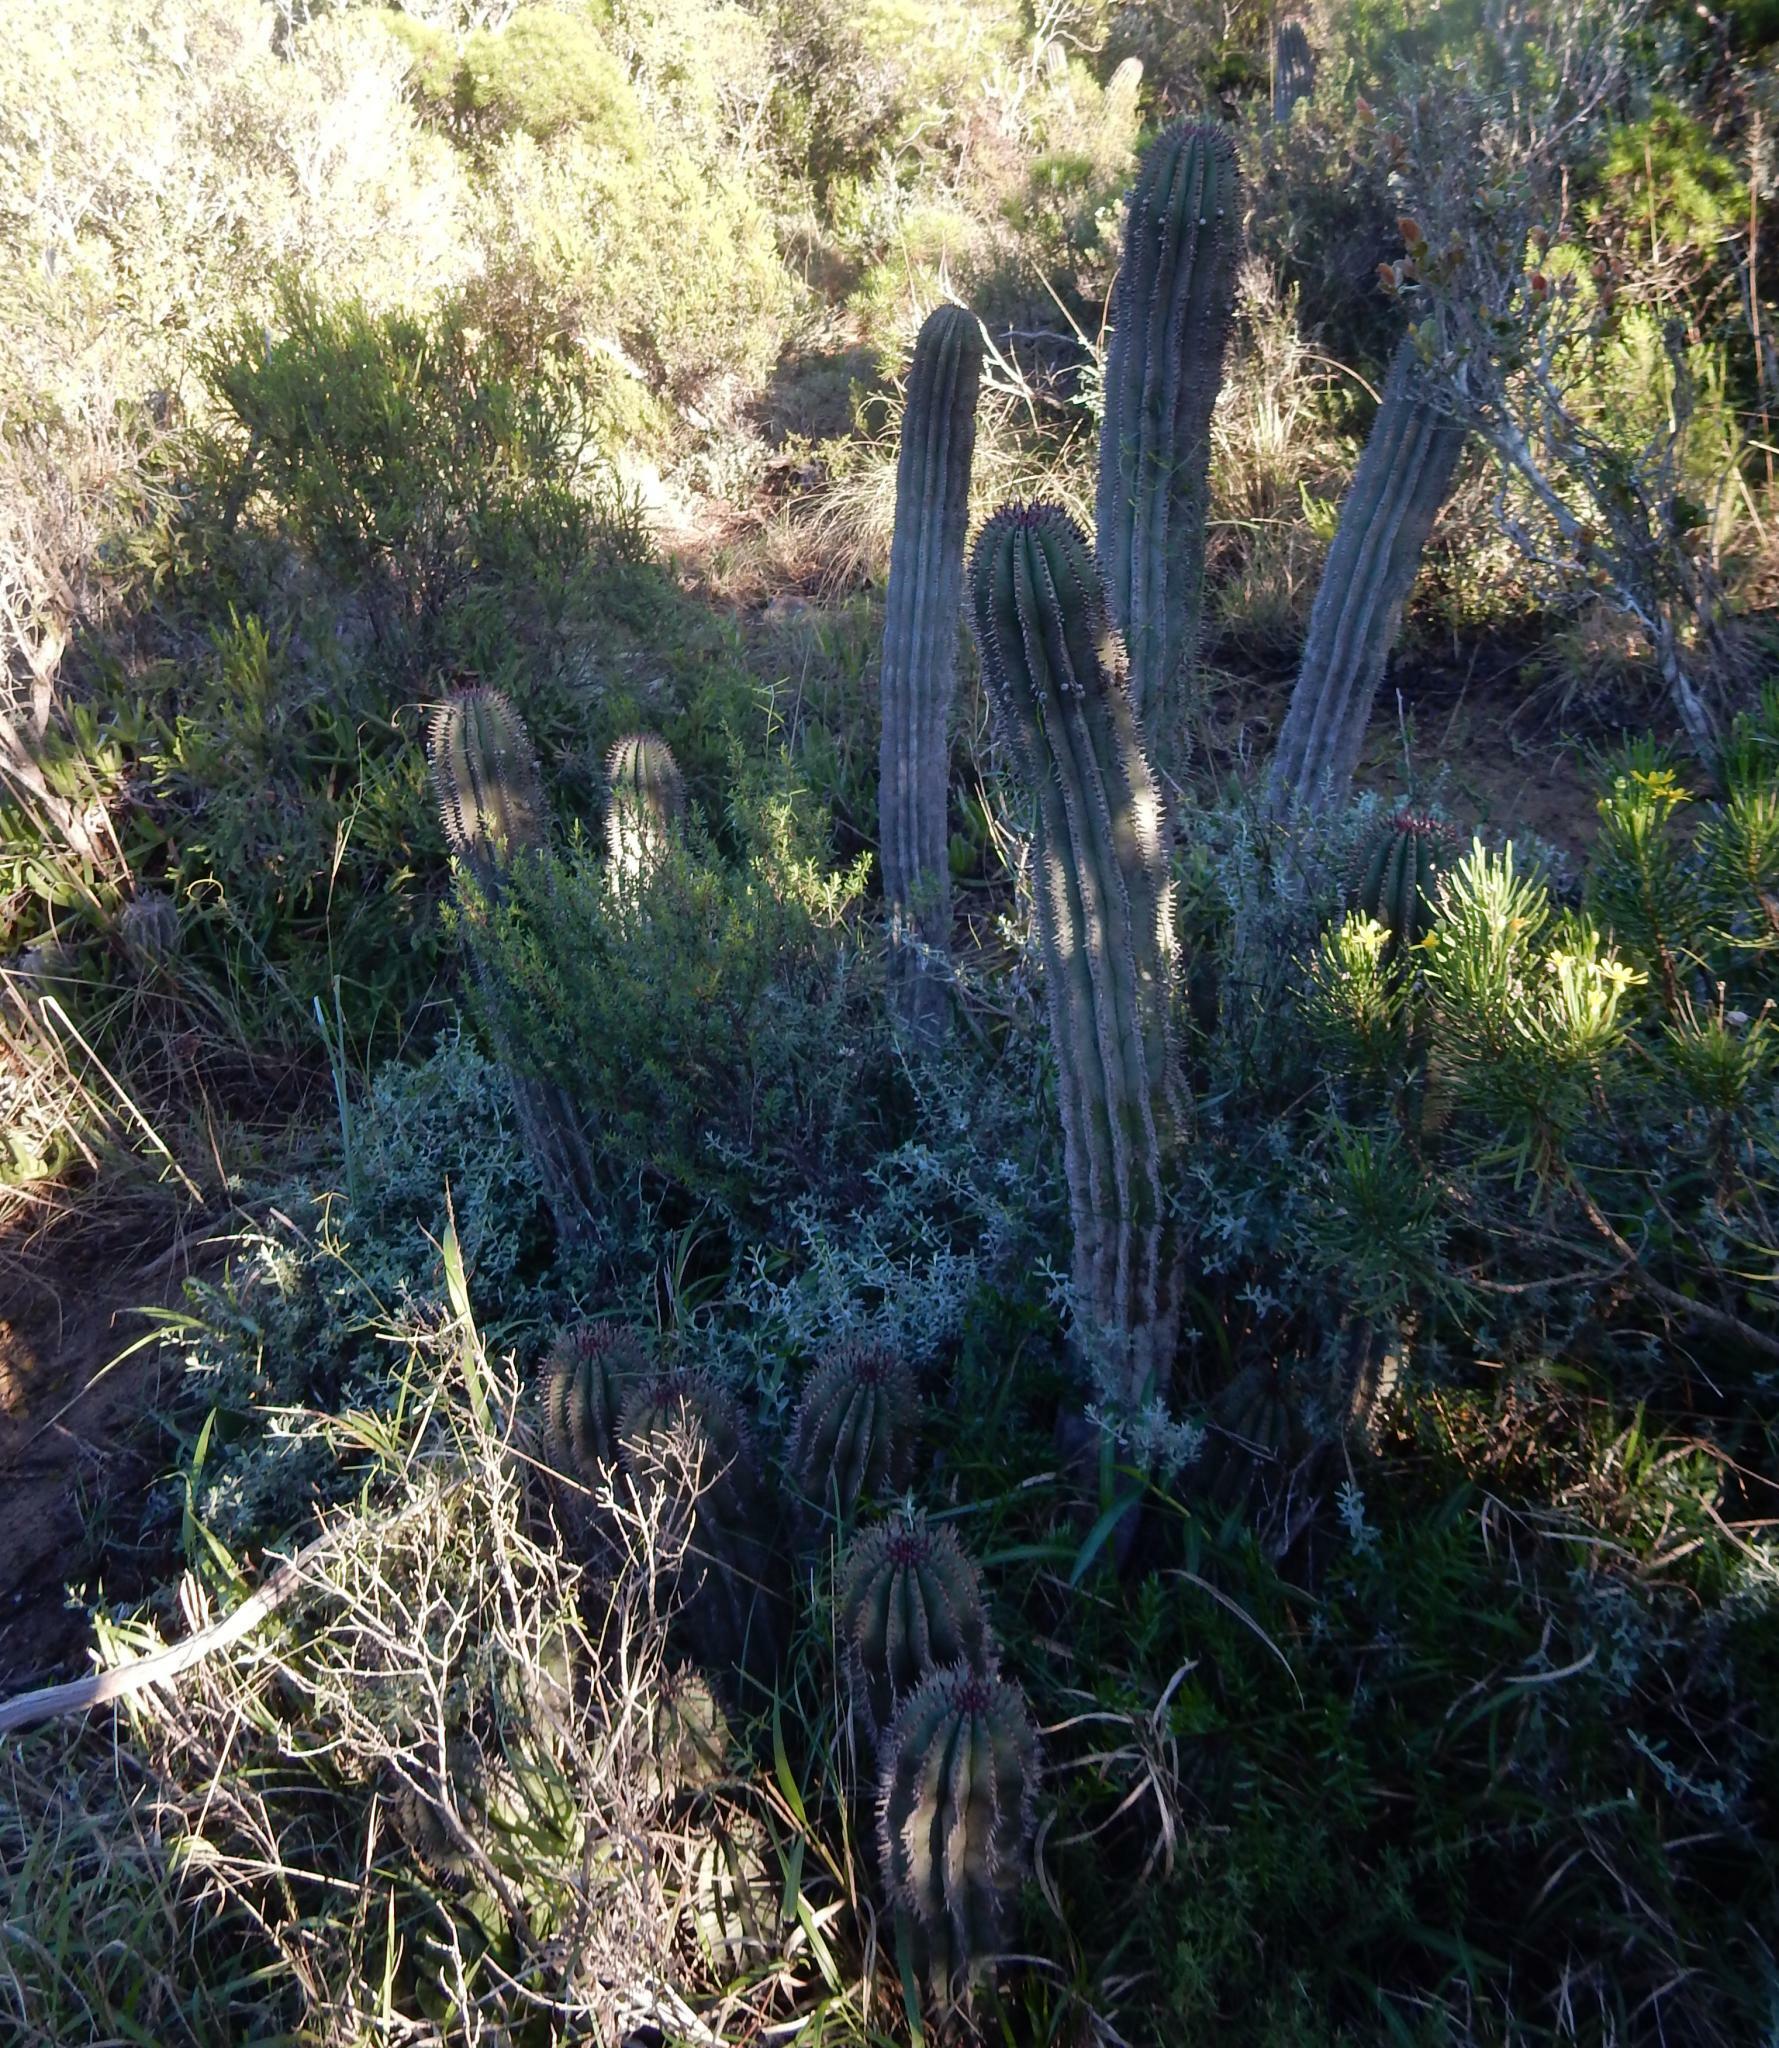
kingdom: Plantae
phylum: Tracheophyta
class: Magnoliopsida
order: Malpighiales
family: Euphorbiaceae
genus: Euphorbia
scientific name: Euphorbia polygona
